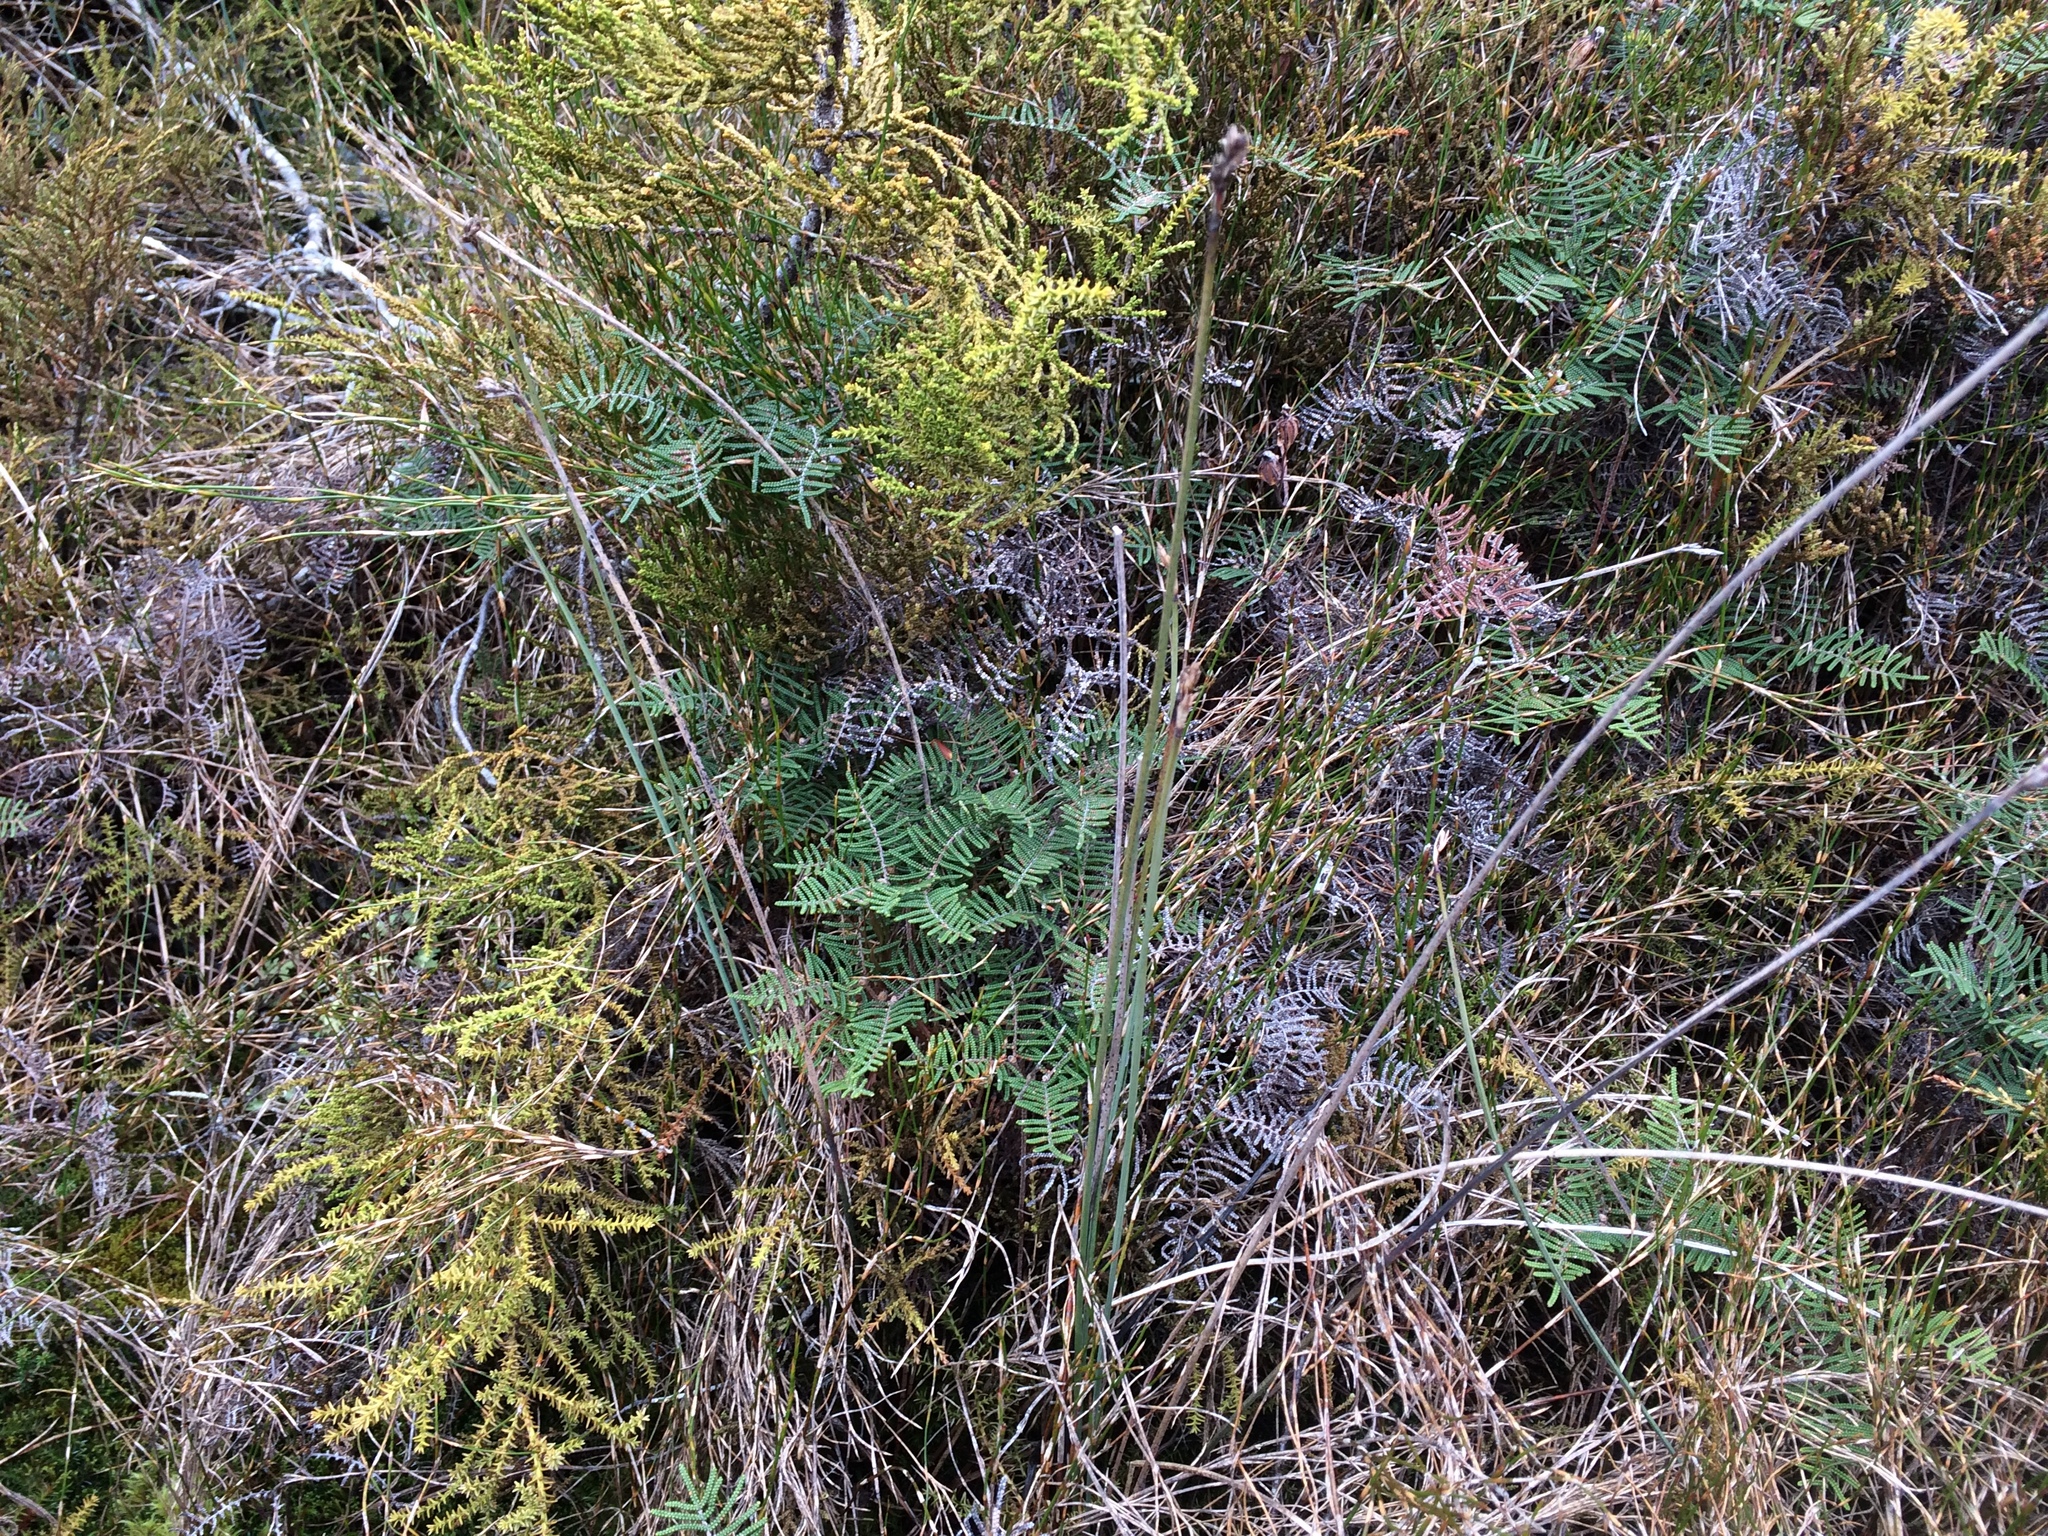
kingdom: Plantae
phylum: Tracheophyta
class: Liliopsida
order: Poales
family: Cyperaceae
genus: Lepidosperma
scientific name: Lepidosperma australe
